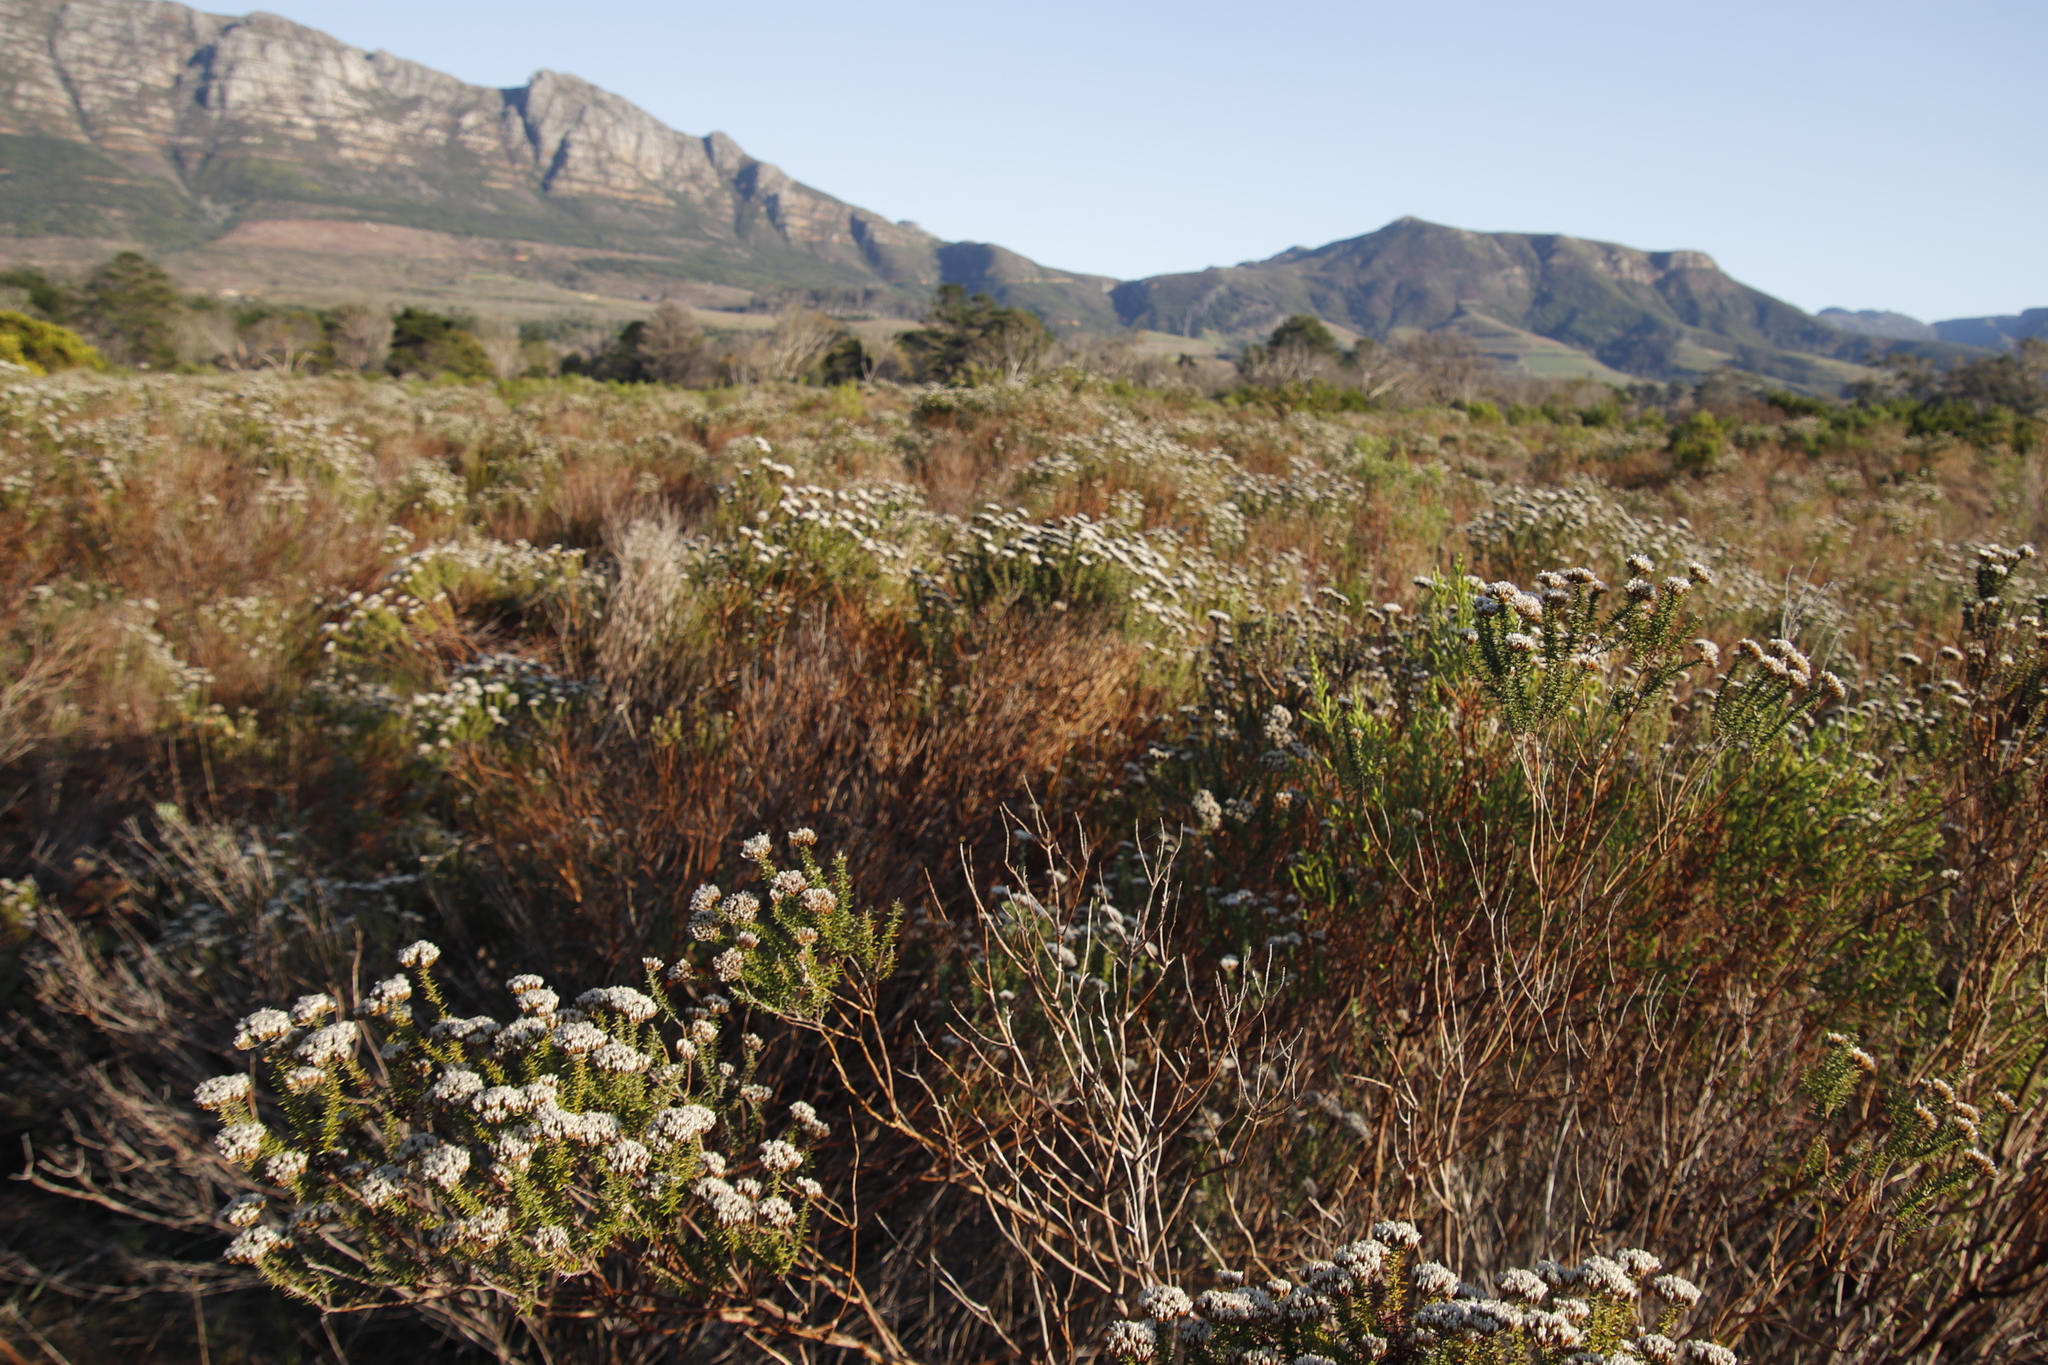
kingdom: Plantae
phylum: Tracheophyta
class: Magnoliopsida
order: Asterales
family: Asteraceae
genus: Metalasia
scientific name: Metalasia densa
